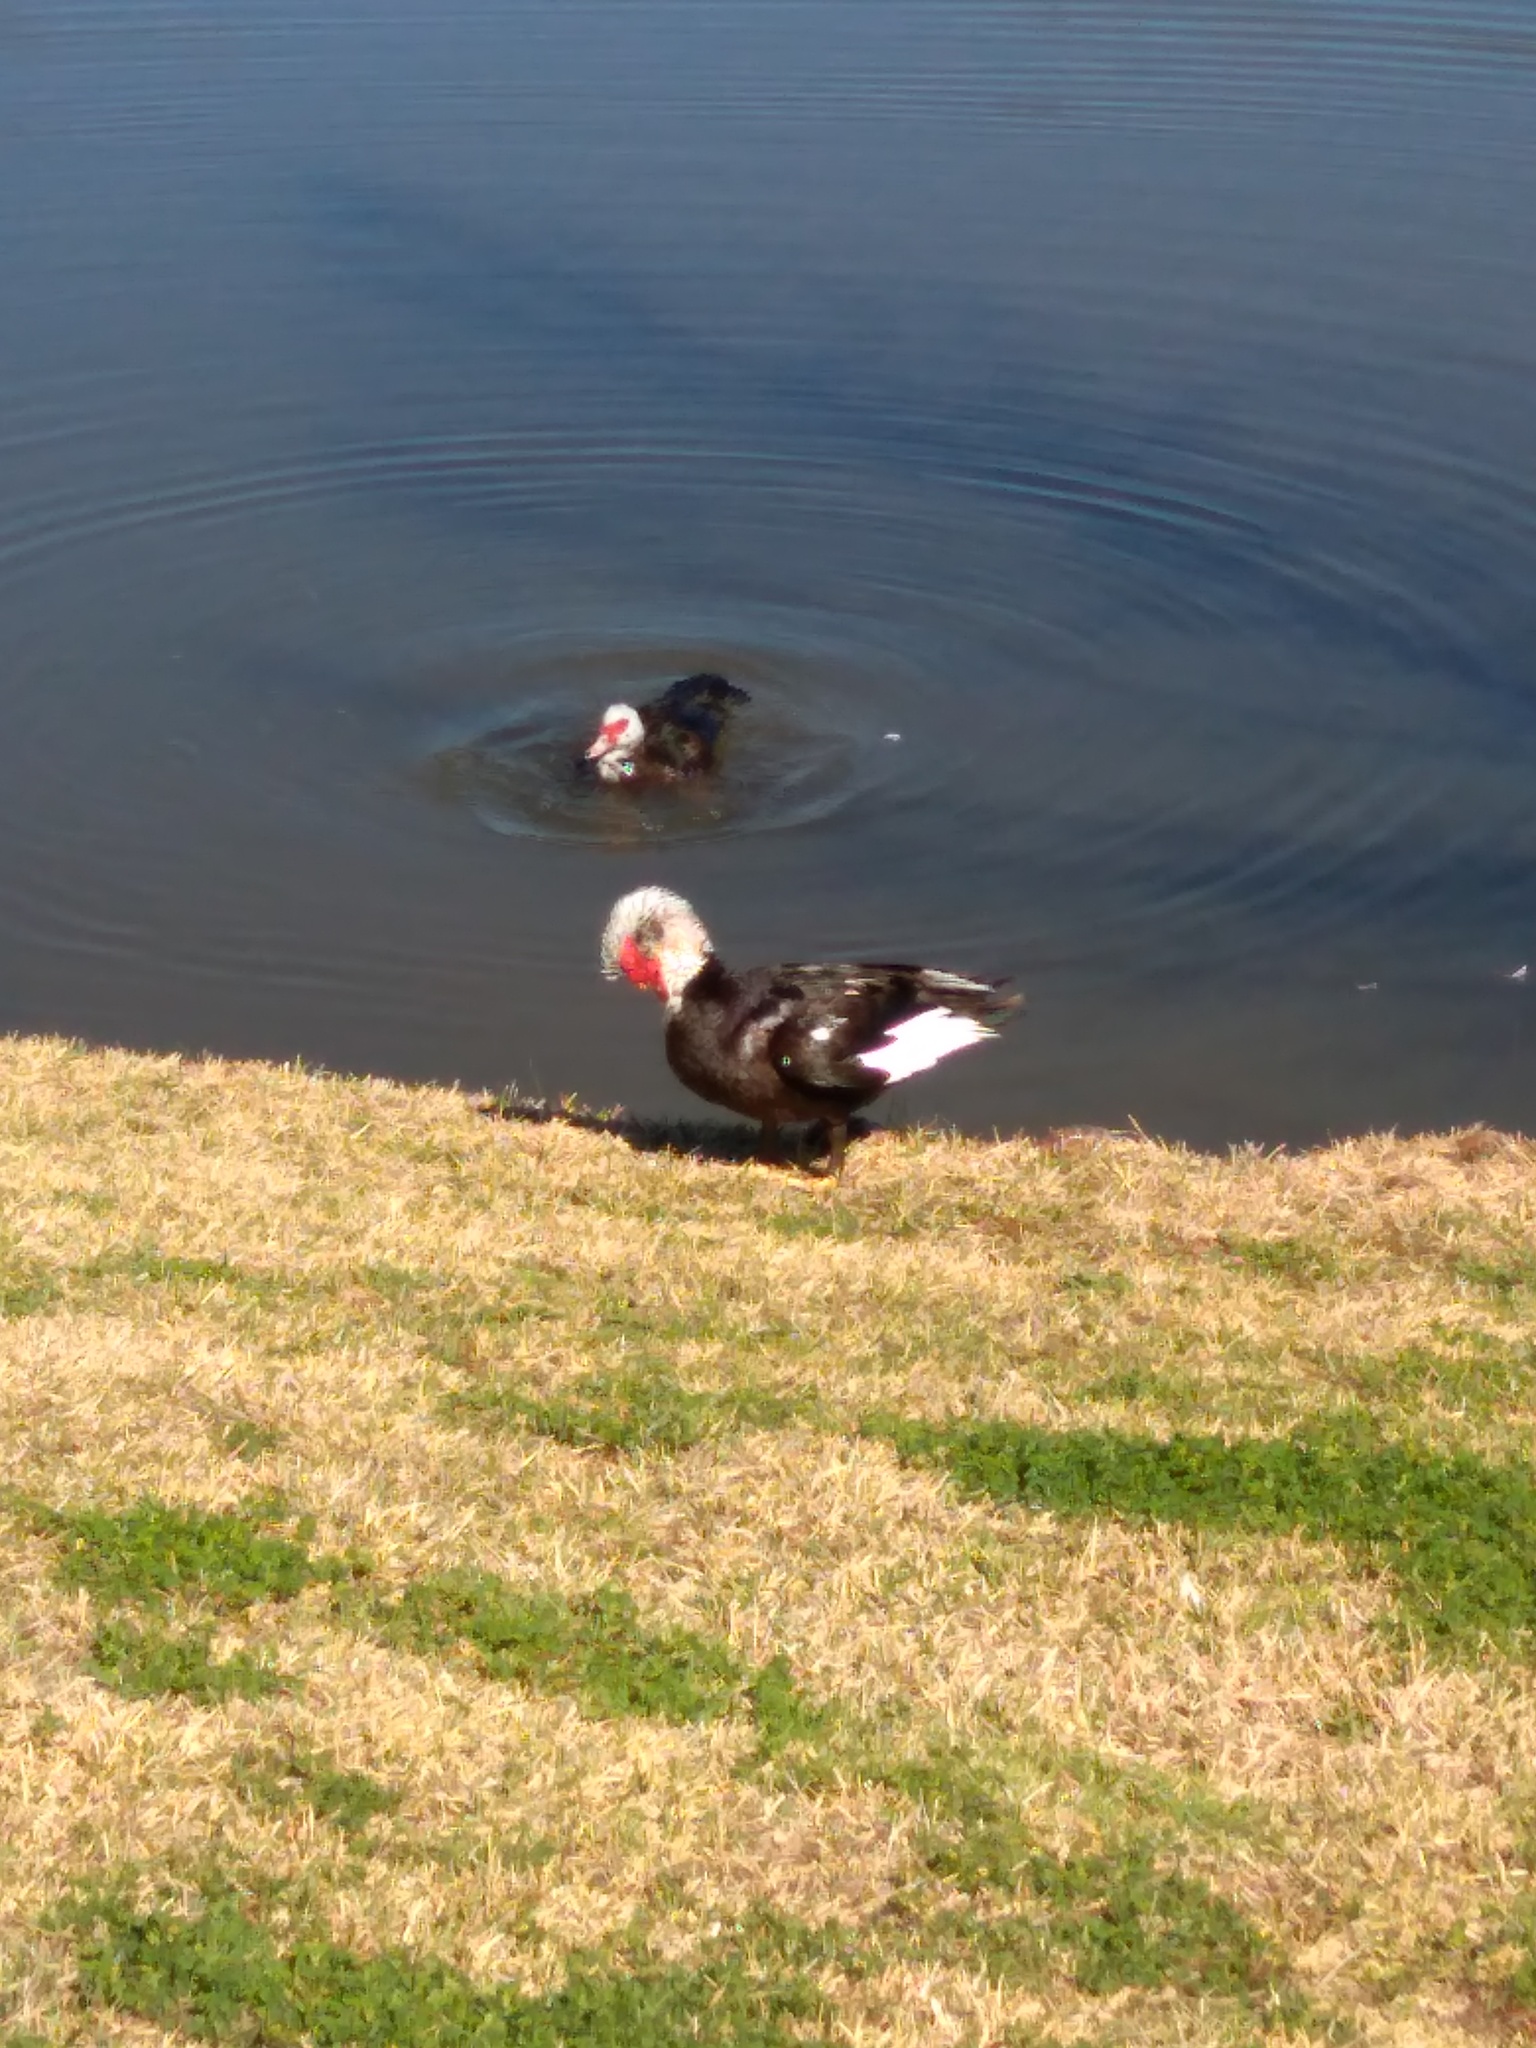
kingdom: Animalia
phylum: Chordata
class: Aves
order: Anseriformes
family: Anatidae
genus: Cairina
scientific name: Cairina moschata
